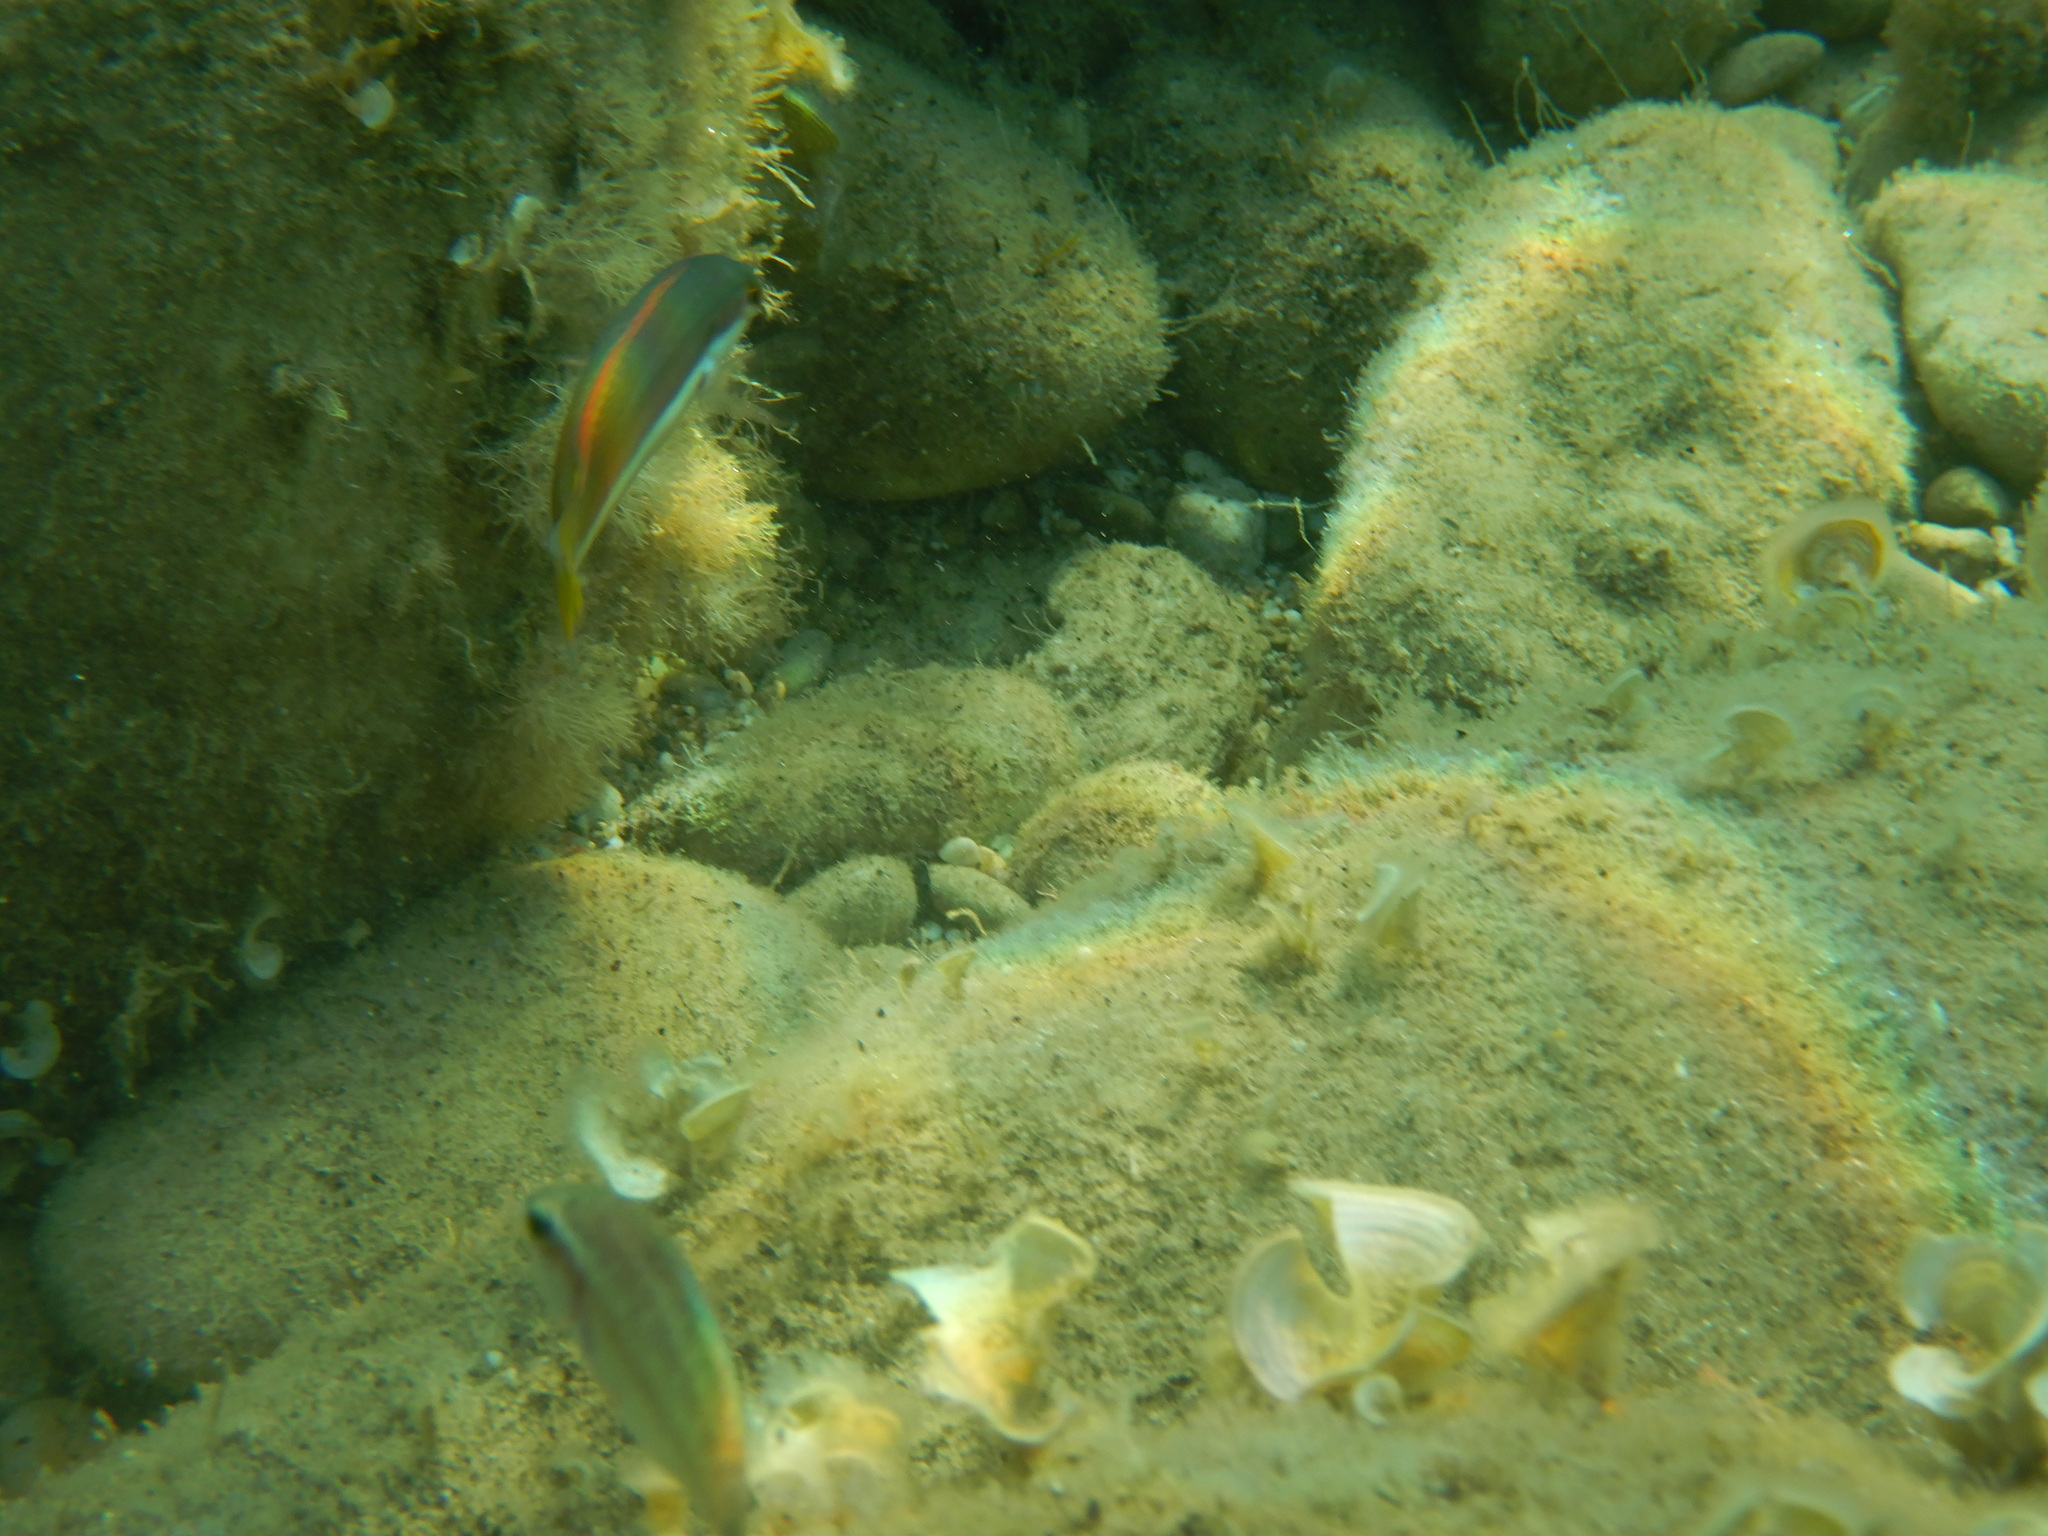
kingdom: Animalia
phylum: Chordata
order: Perciformes
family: Labridae
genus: Coris
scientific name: Coris julis
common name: Rainbow wrasse
